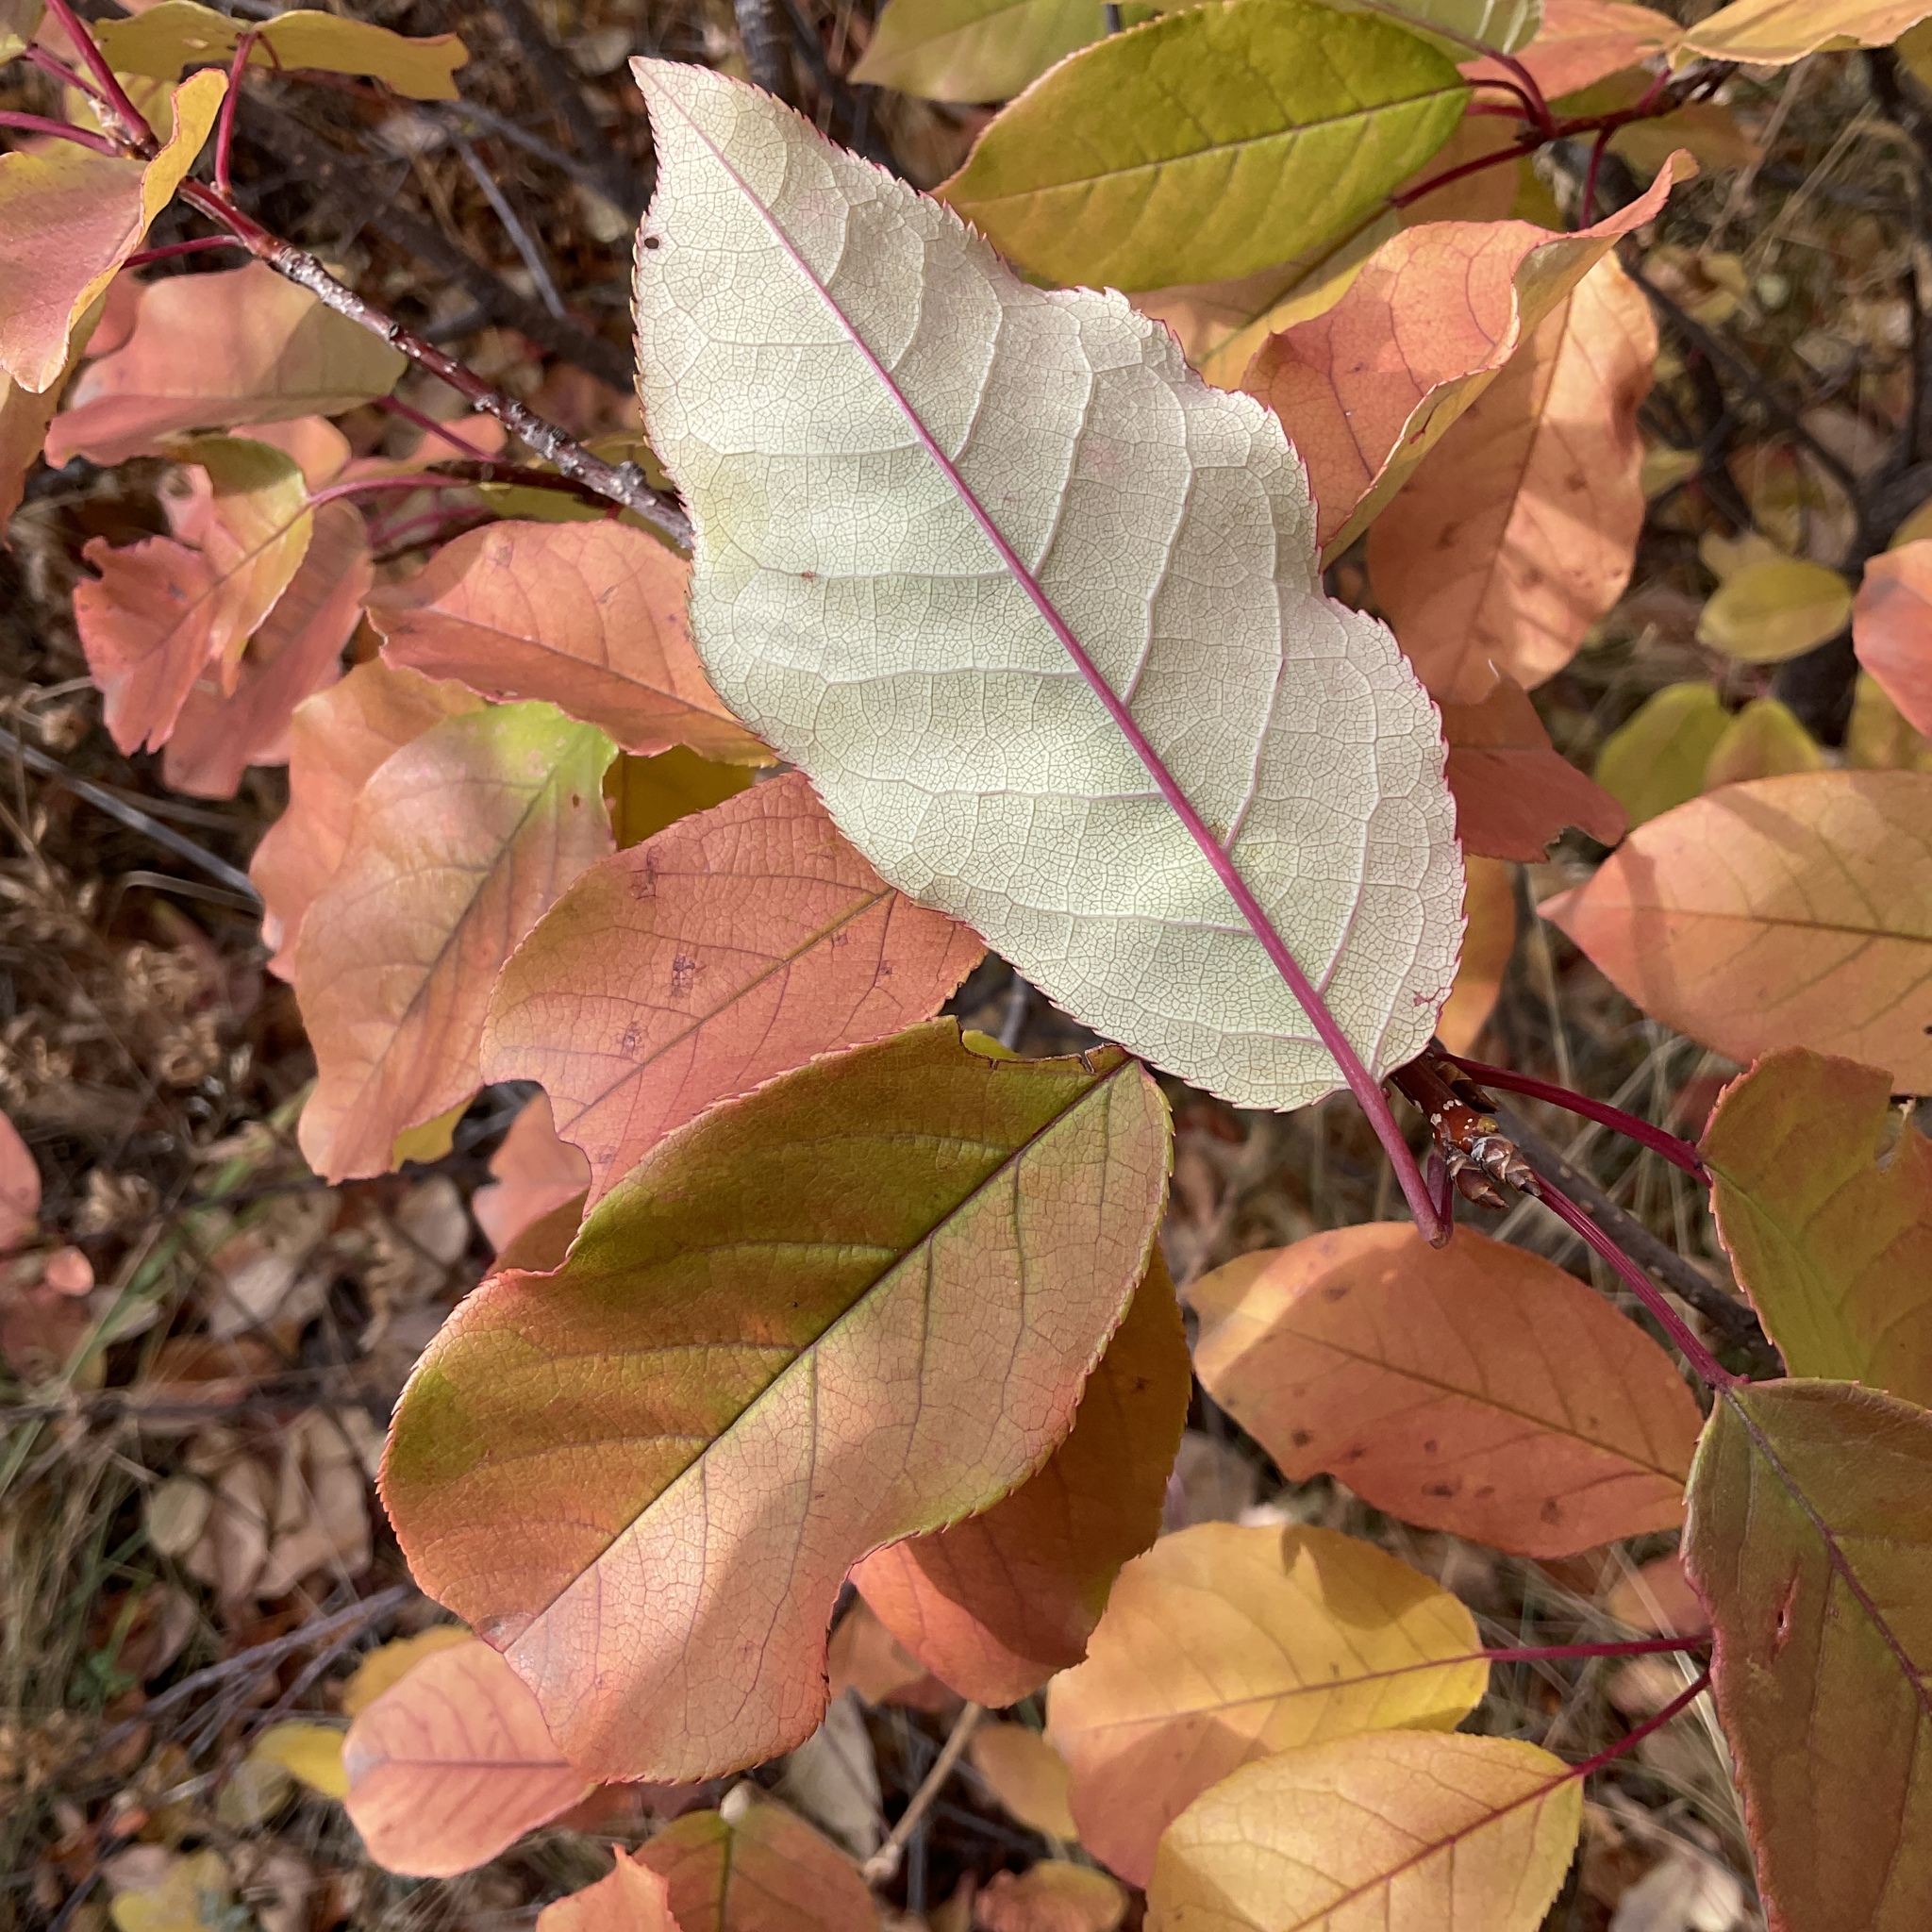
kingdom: Plantae
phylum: Tracheophyta
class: Magnoliopsida
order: Rosales
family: Rosaceae
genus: Prunus
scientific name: Prunus virginiana
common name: Chokecherry
